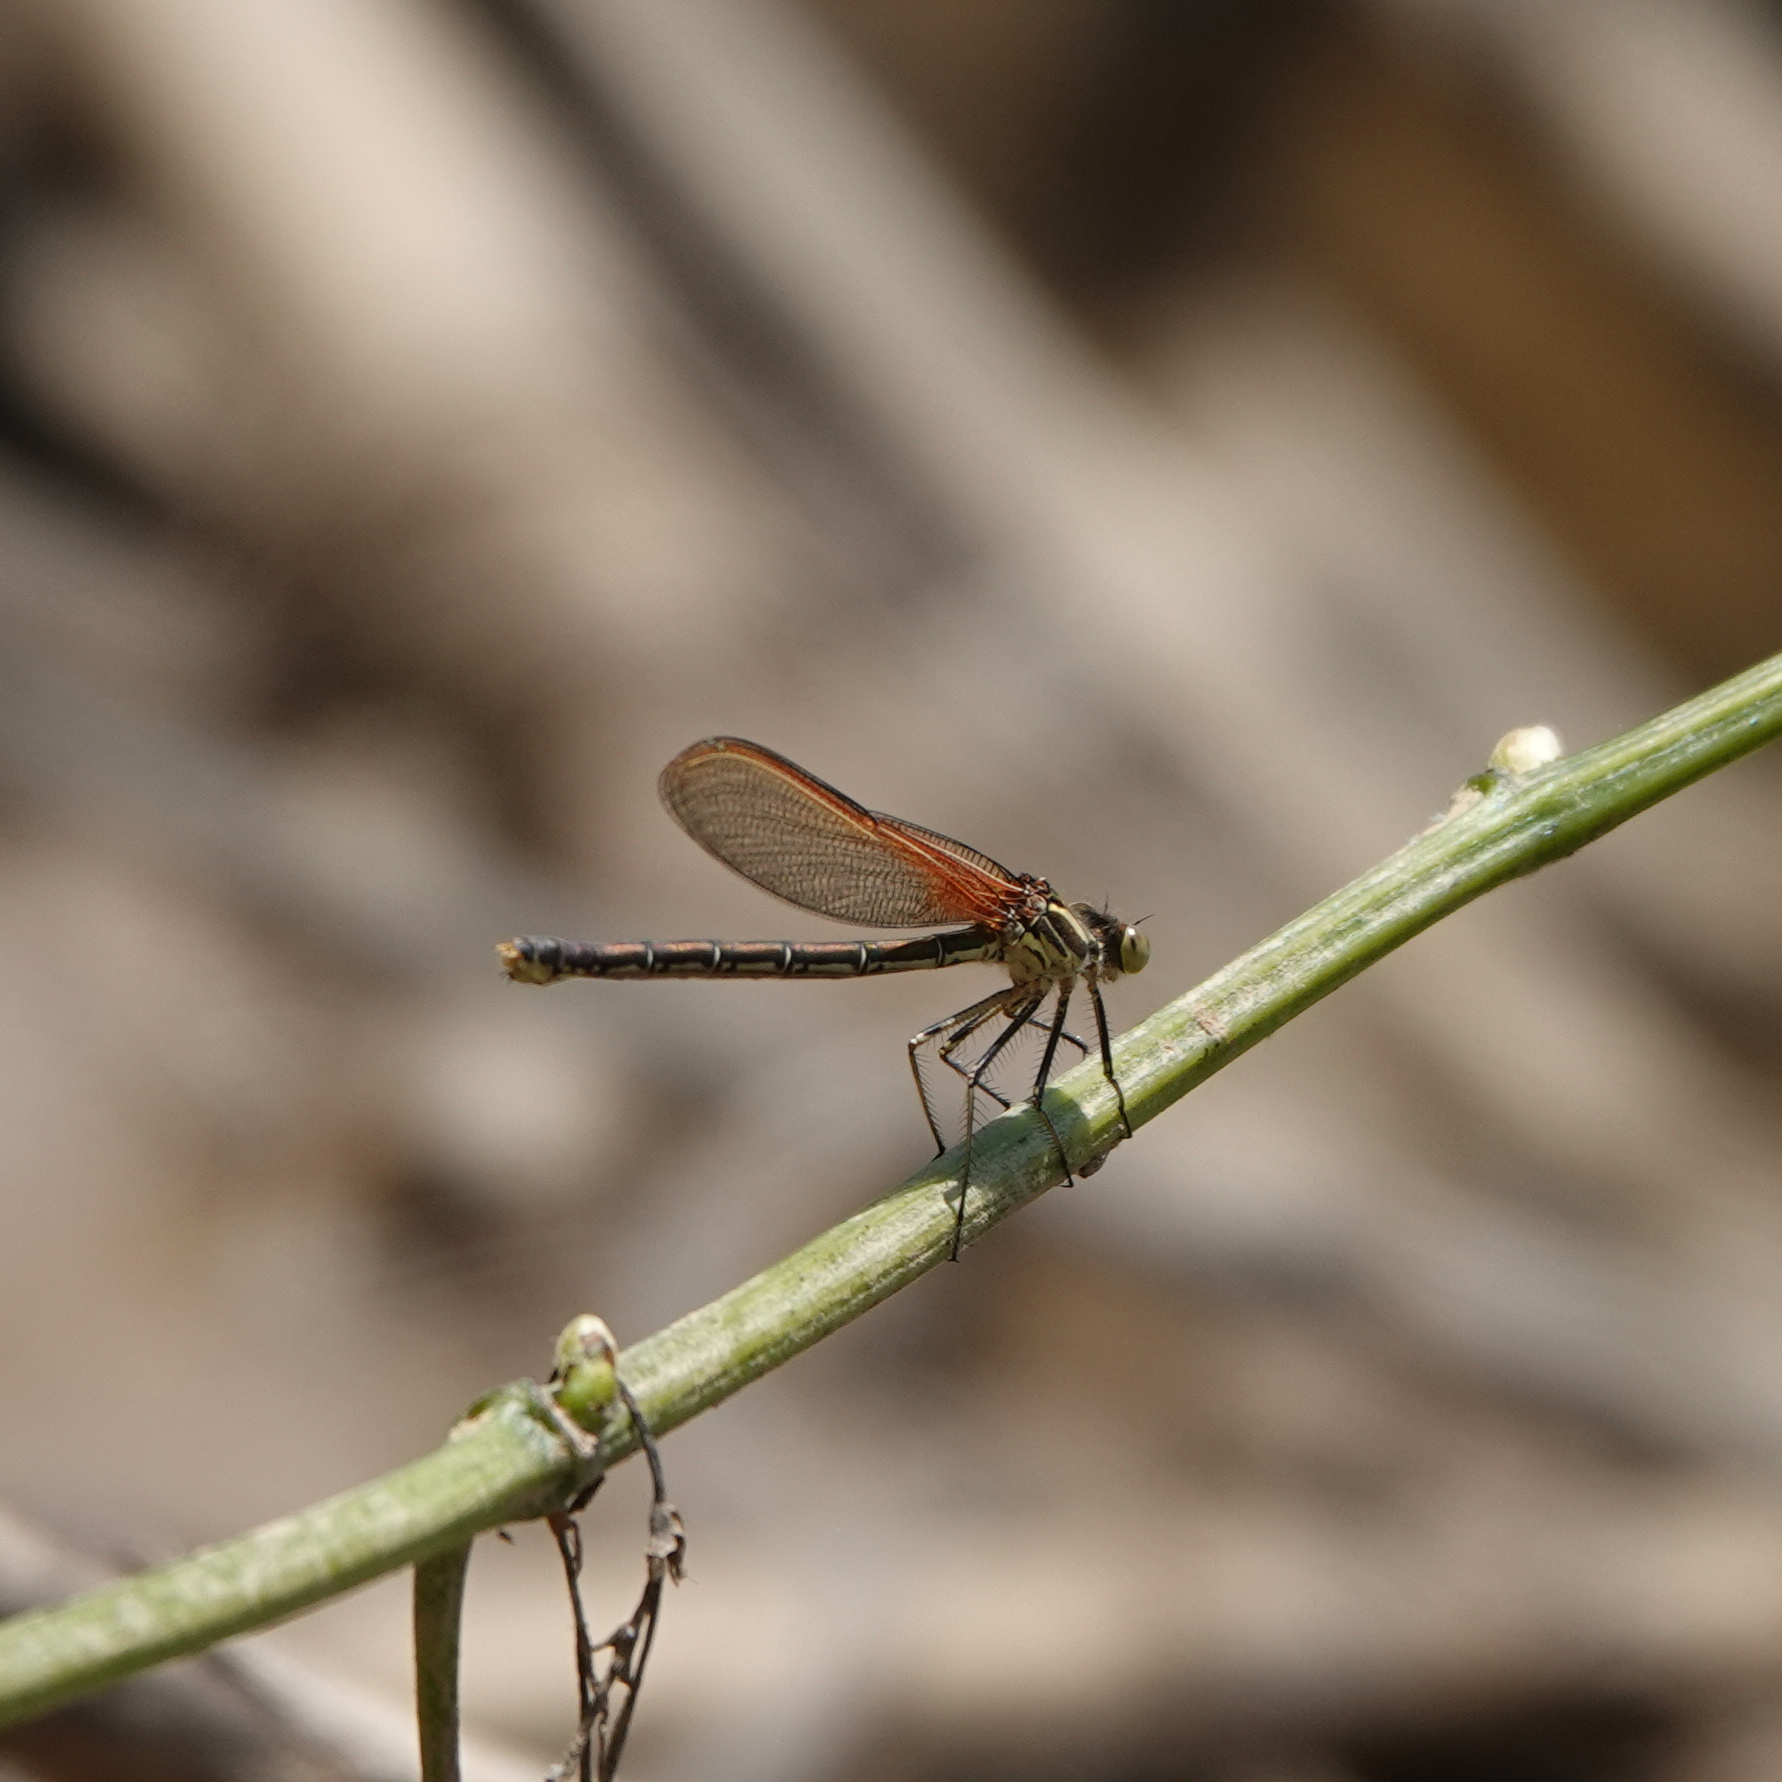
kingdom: Animalia
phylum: Arthropoda
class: Insecta
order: Odonata
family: Calopterygidae
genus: Hetaerina
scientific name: Hetaerina americana
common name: American rubyspot
